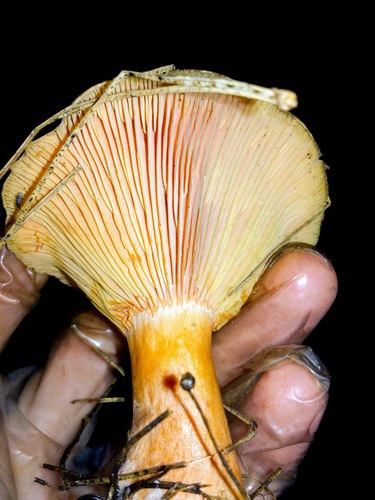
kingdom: Fungi
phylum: Basidiomycota
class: Agaricomycetes
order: Russulales
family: Russulaceae
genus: Lactarius
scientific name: Lactarius deterrimus
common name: False saffron milkcap
